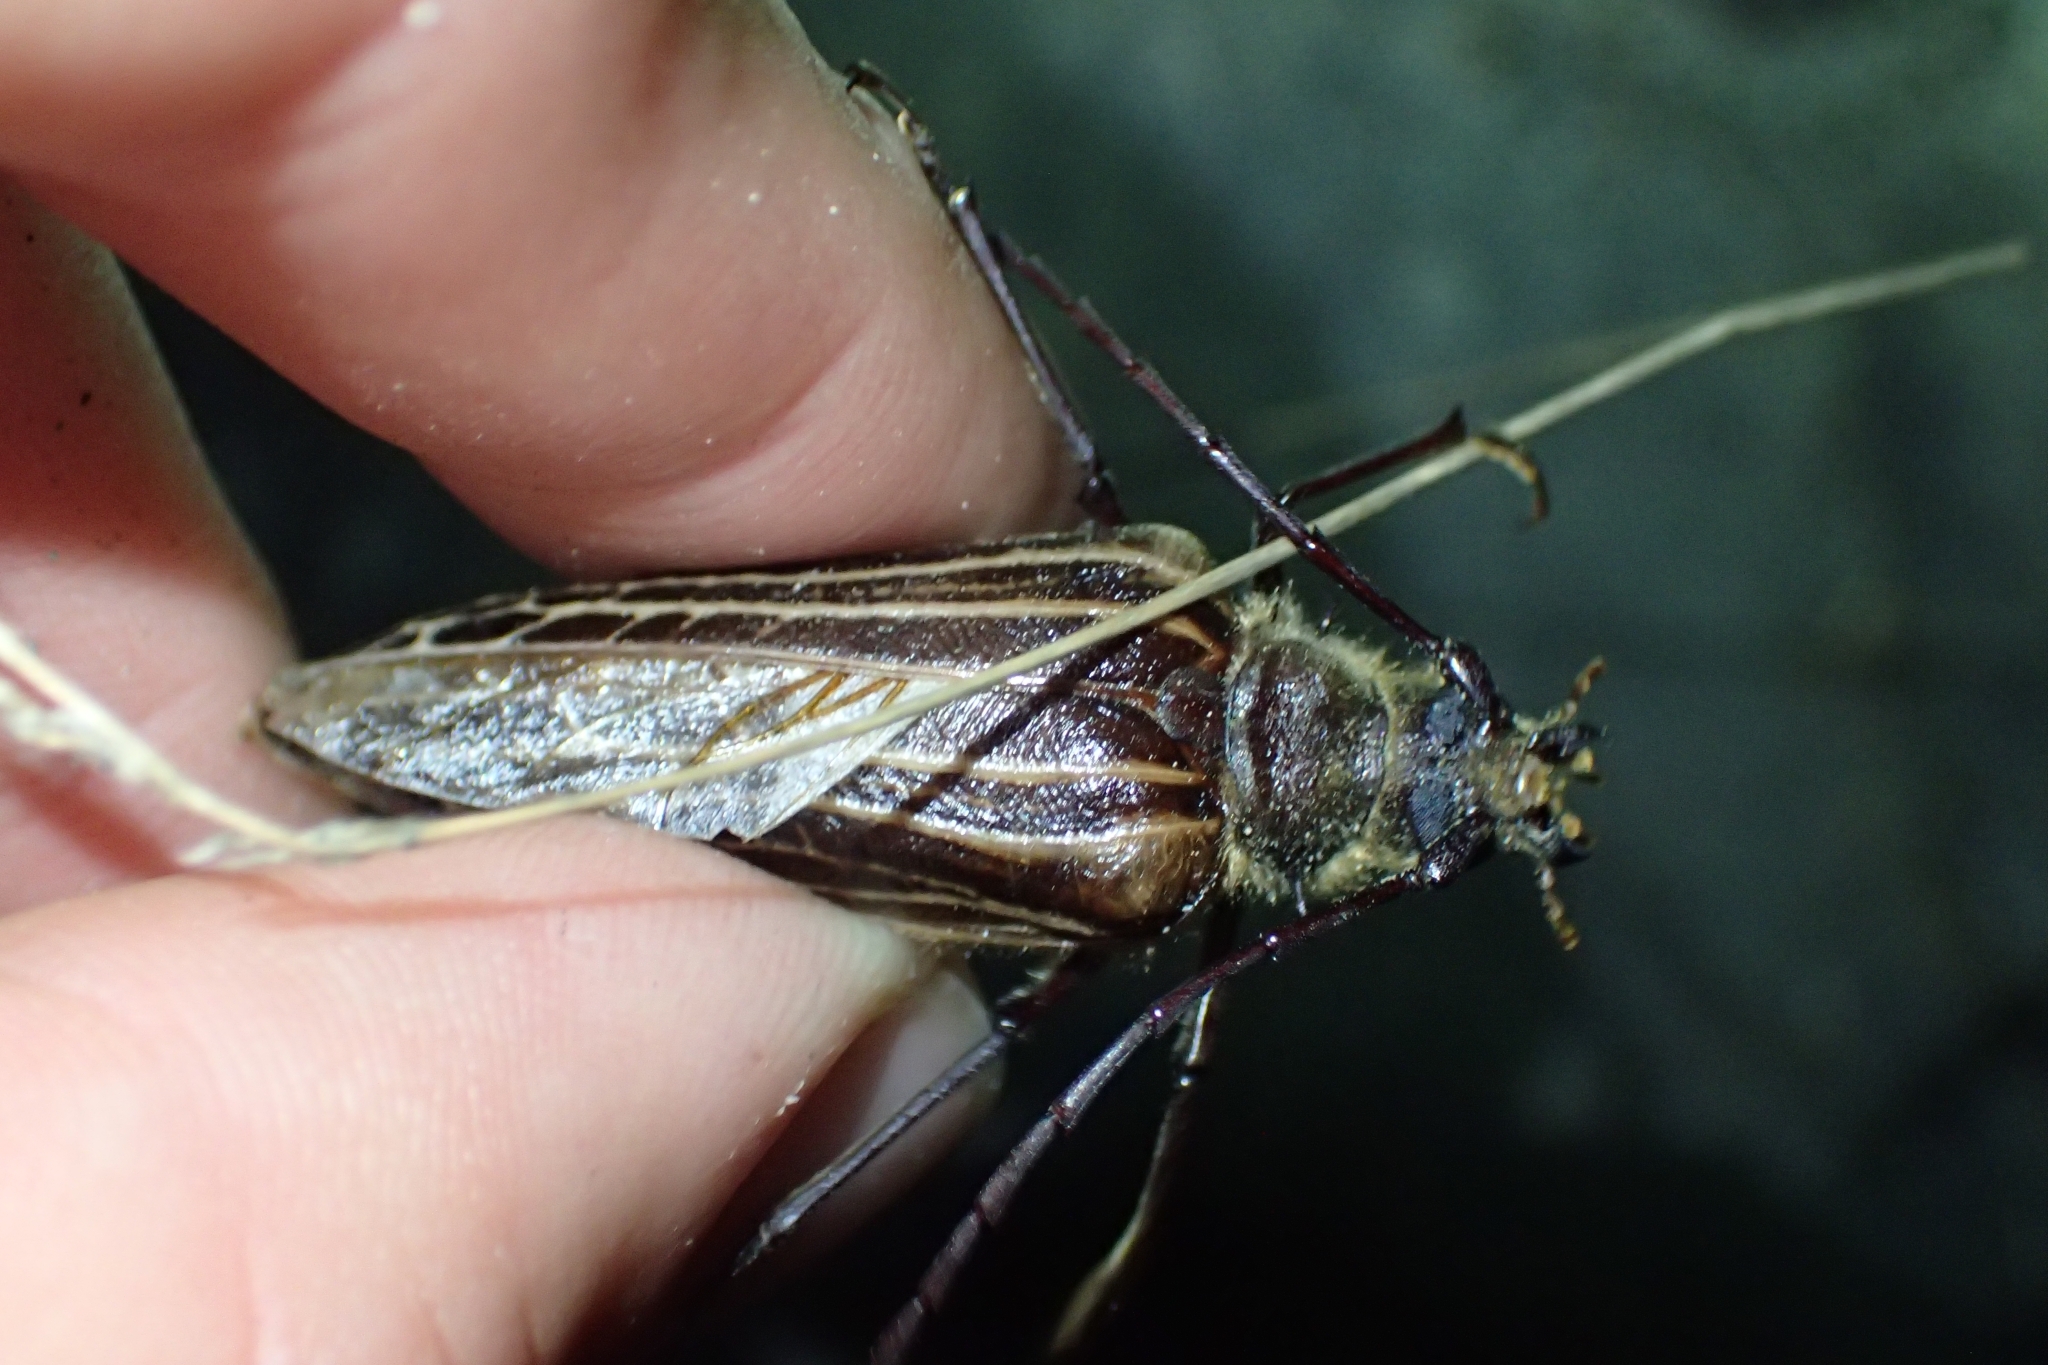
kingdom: Animalia
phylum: Arthropoda
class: Insecta
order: Coleoptera
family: Cerambycidae
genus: Prionoplus
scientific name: Prionoplus reticularis
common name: Huhu beetle
